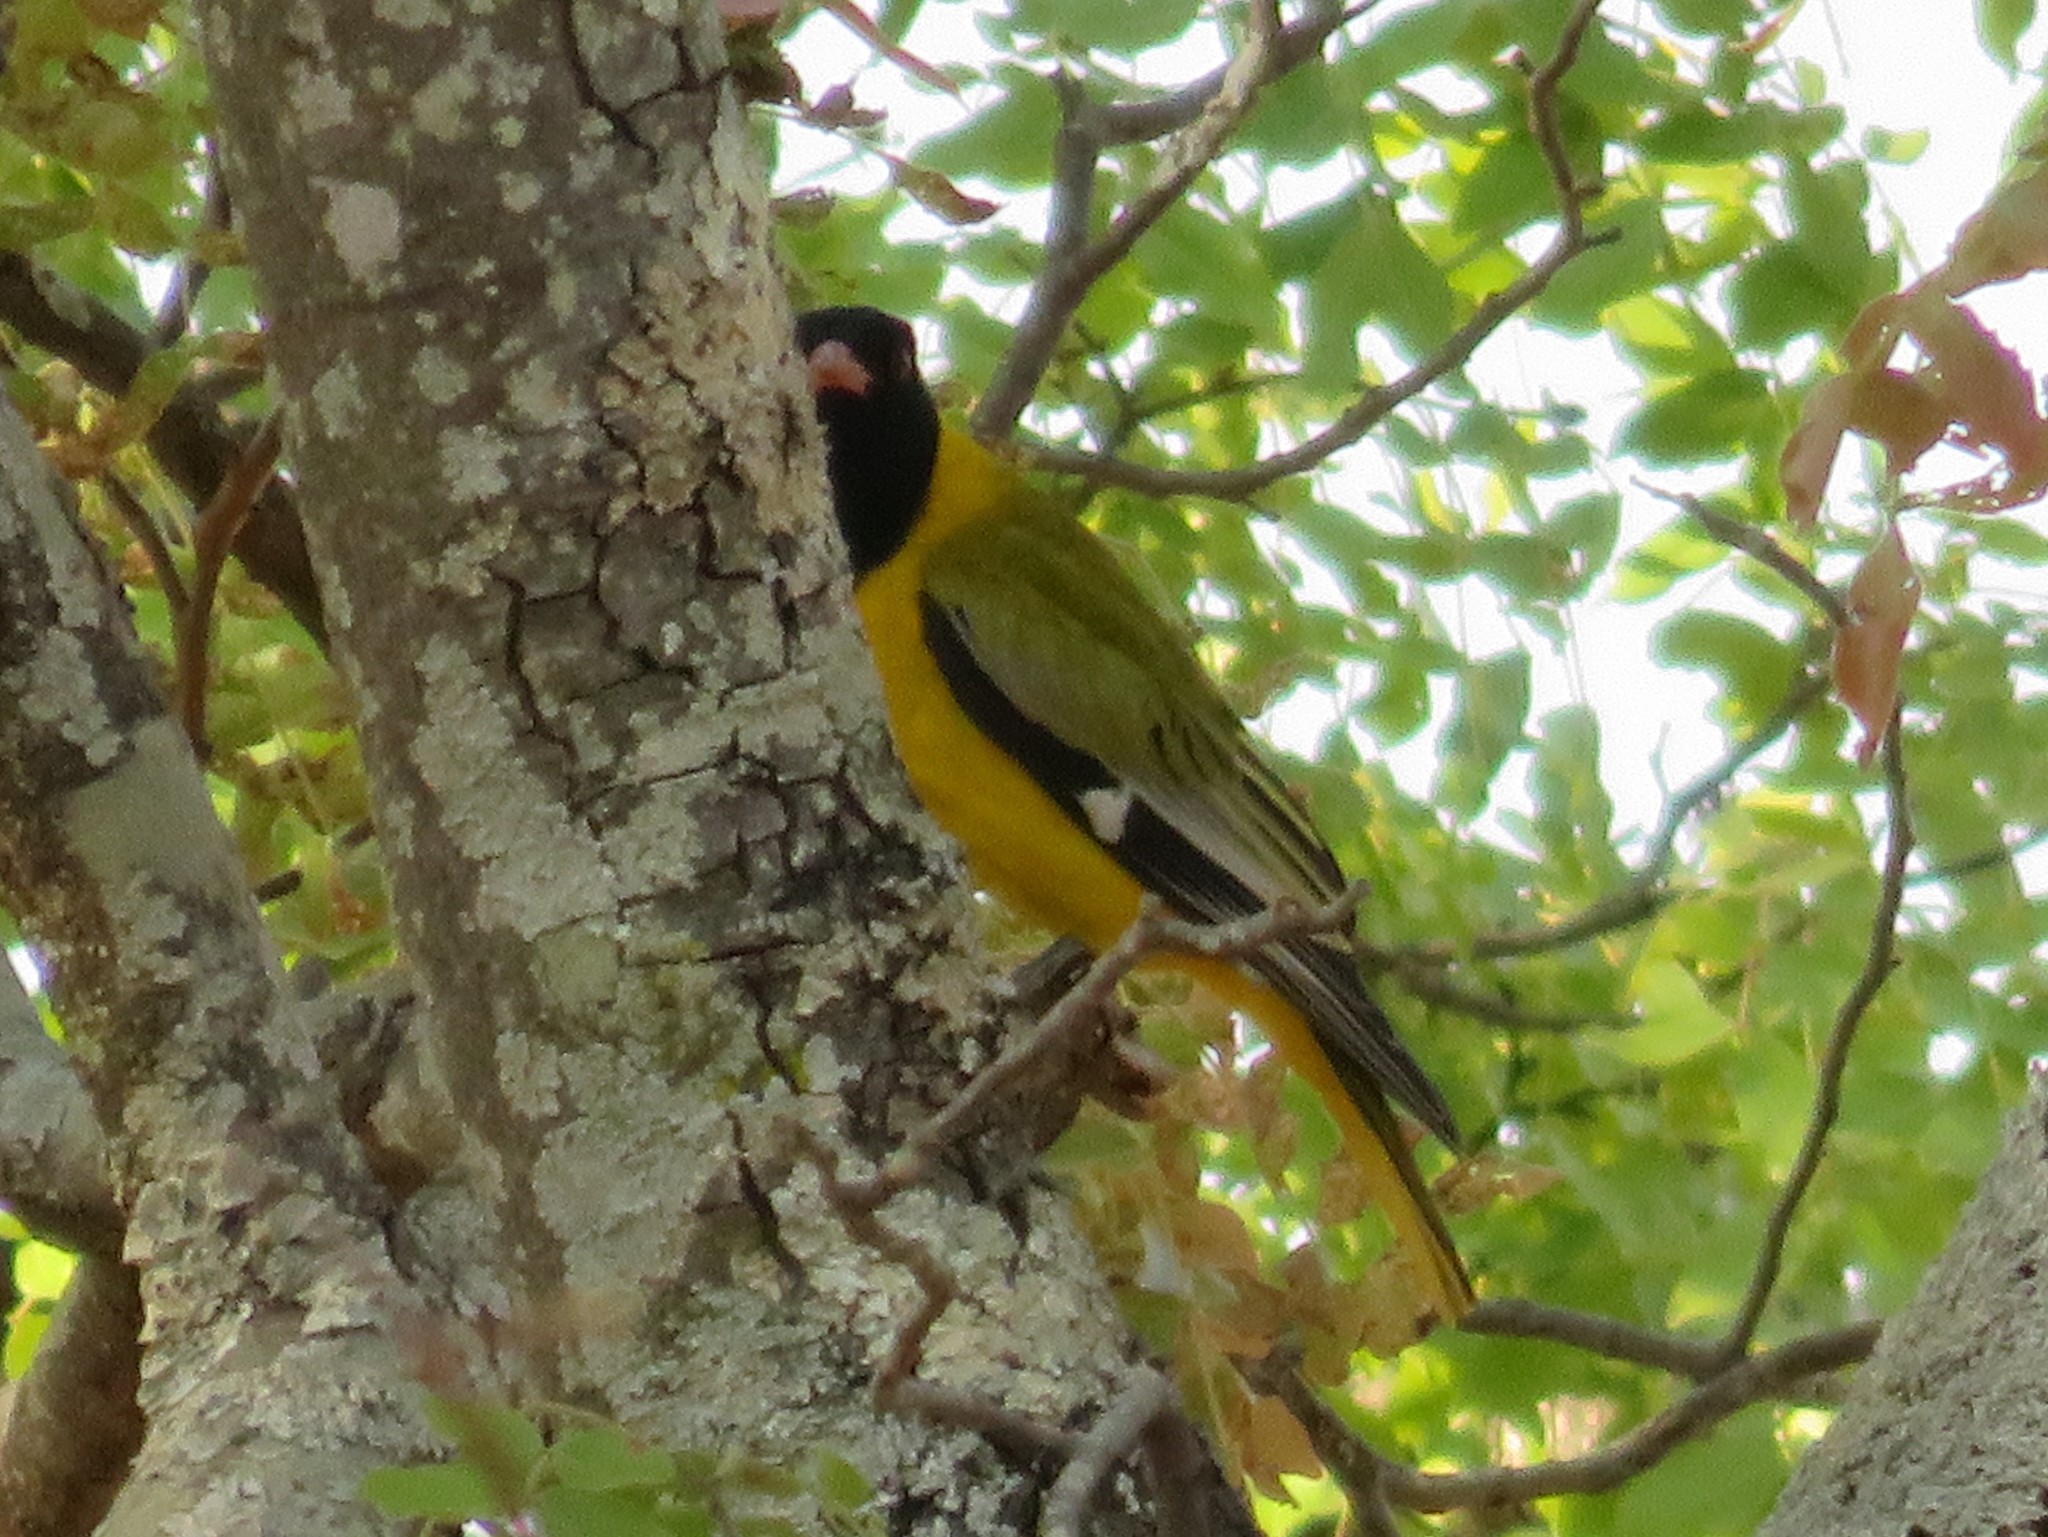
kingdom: Animalia
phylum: Chordata
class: Aves
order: Passeriformes
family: Oriolidae
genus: Oriolus
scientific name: Oriolus larvatus
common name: Black-headed oriole
